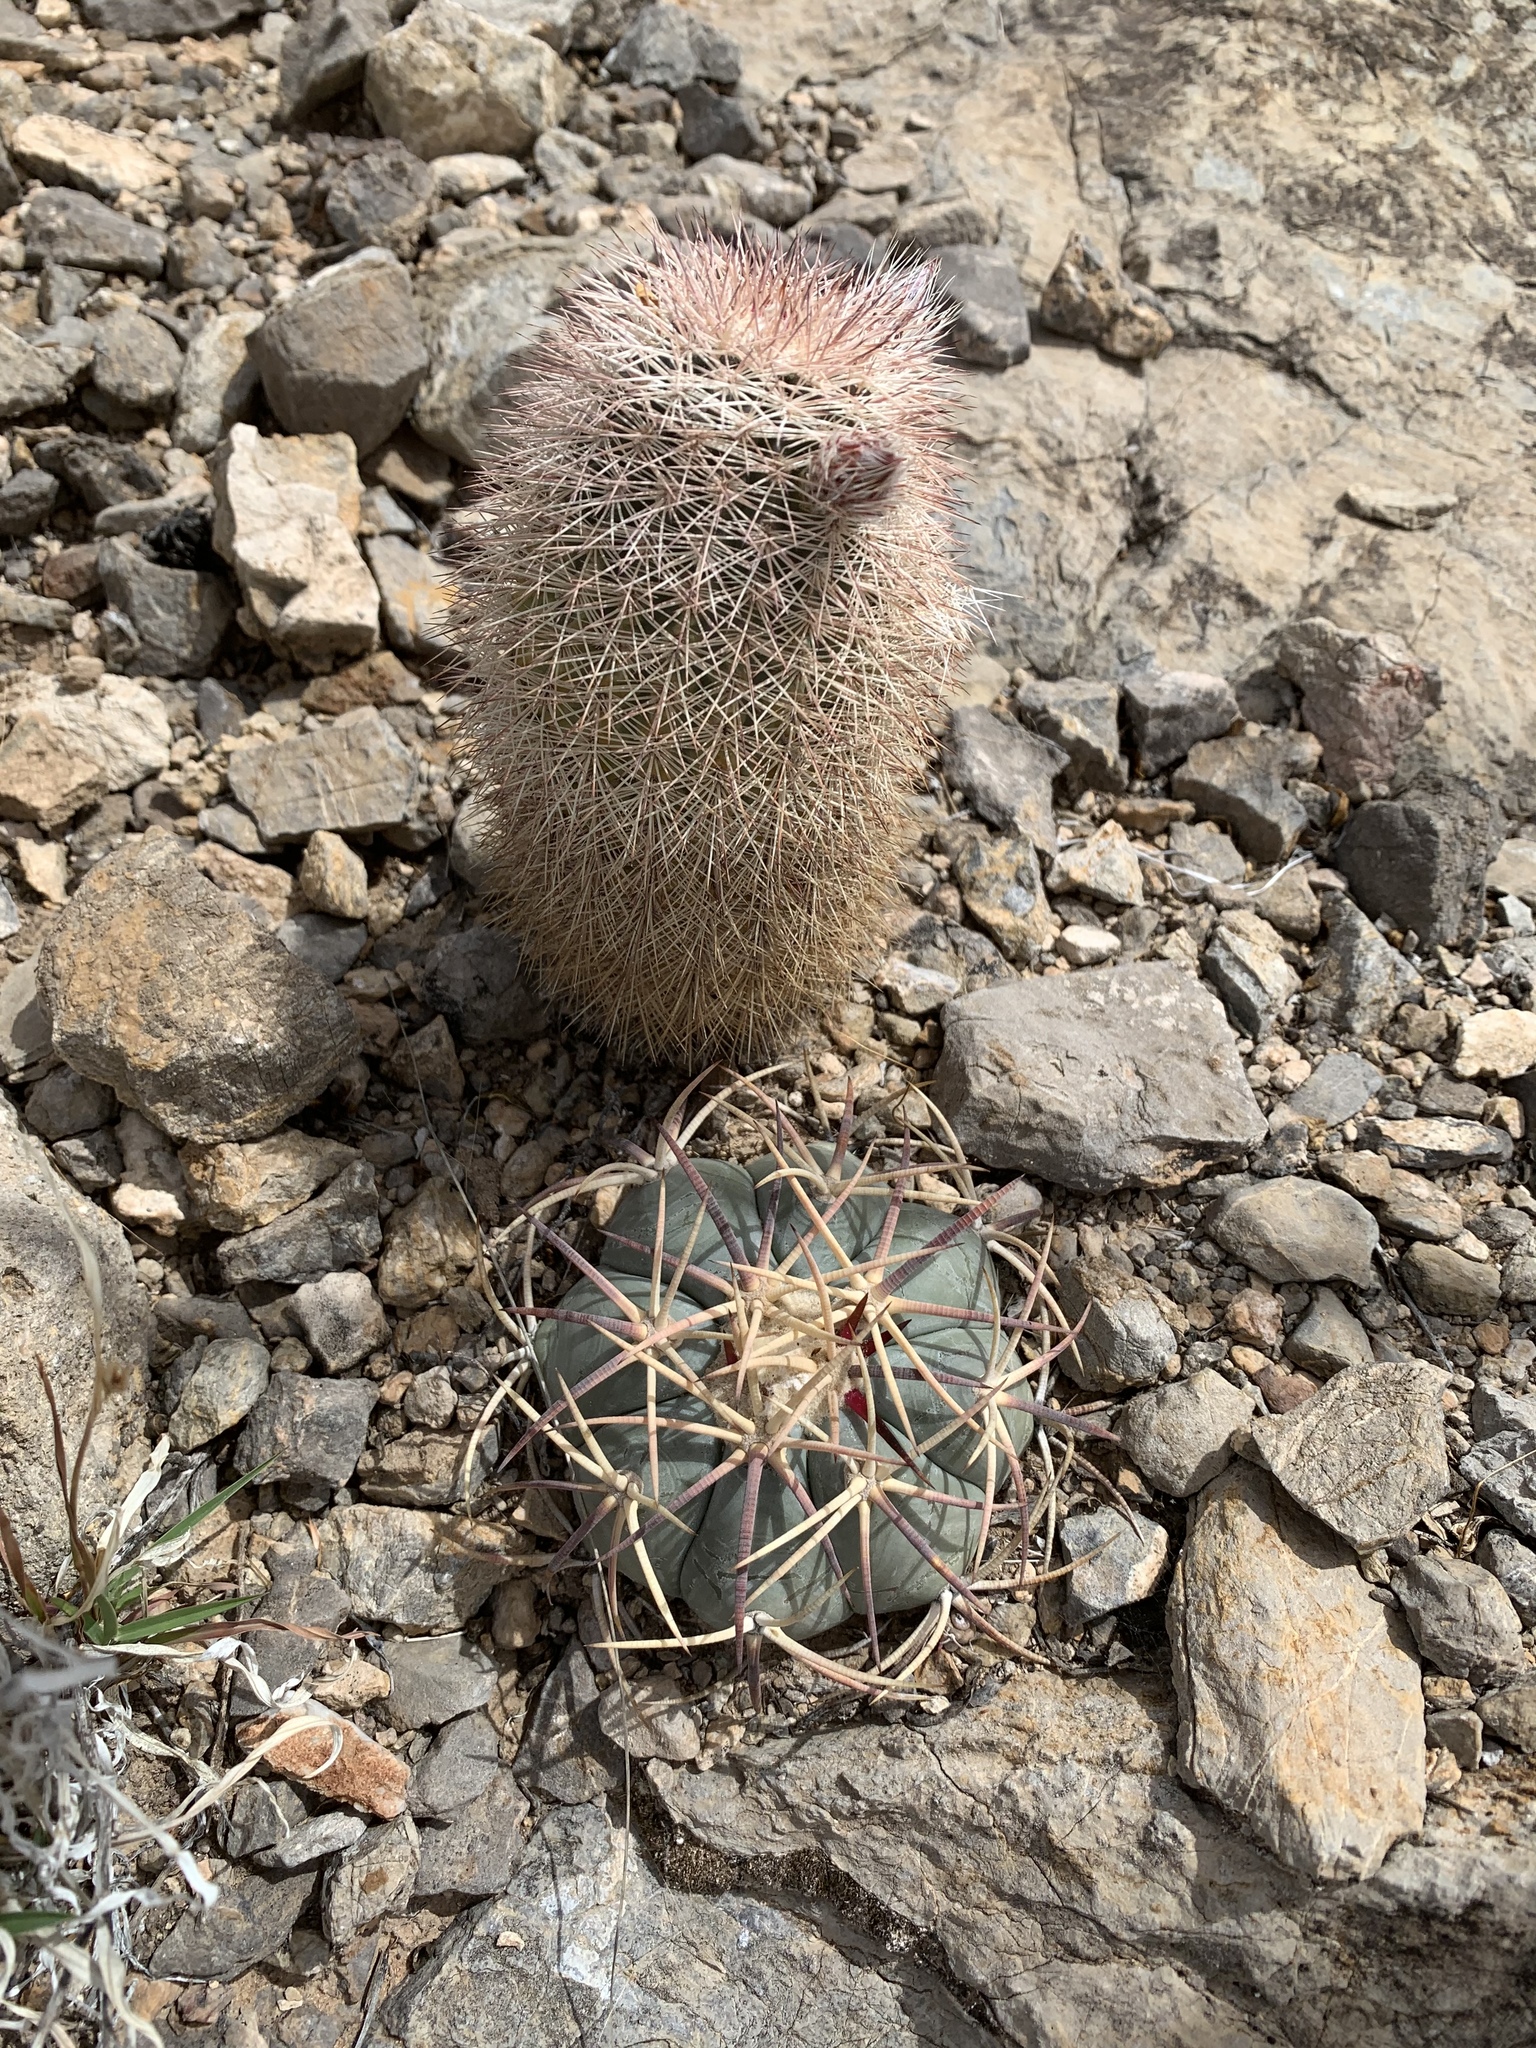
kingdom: Plantae
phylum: Tracheophyta
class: Magnoliopsida
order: Caryophyllales
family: Cactaceae
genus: Echinocereus
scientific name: Echinocereus dasyacanthus
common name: Spiny hedgehog cactus
